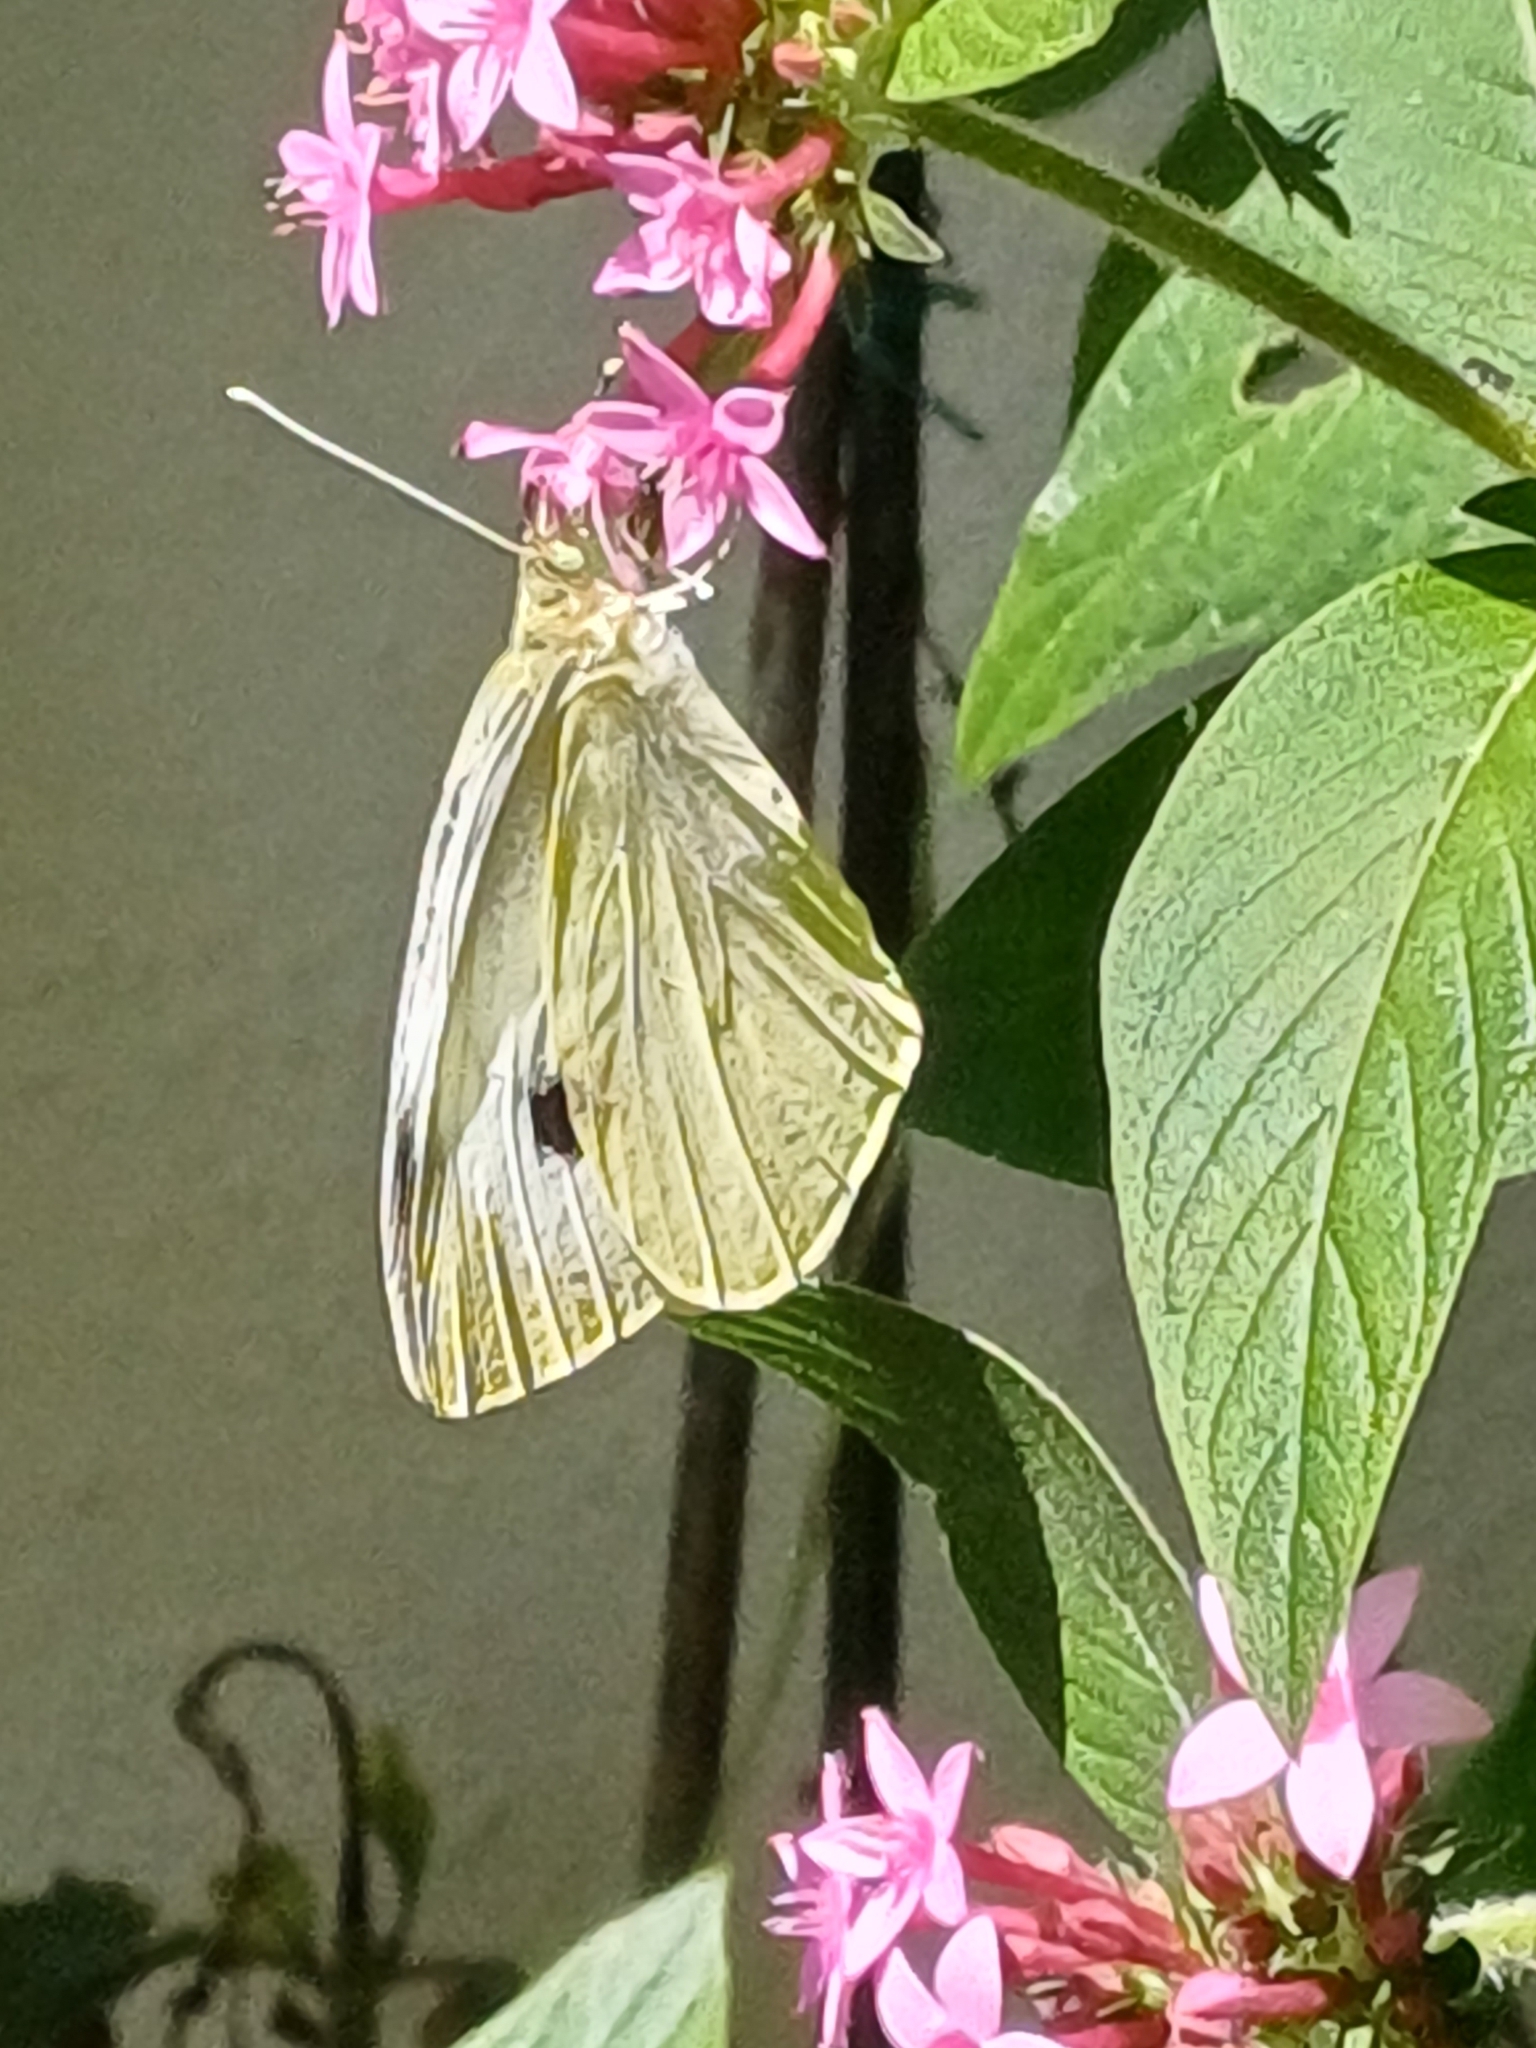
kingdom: Animalia
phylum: Arthropoda
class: Insecta
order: Lepidoptera
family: Pieridae
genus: Pieris
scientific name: Pieris brassicae
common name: Large white
